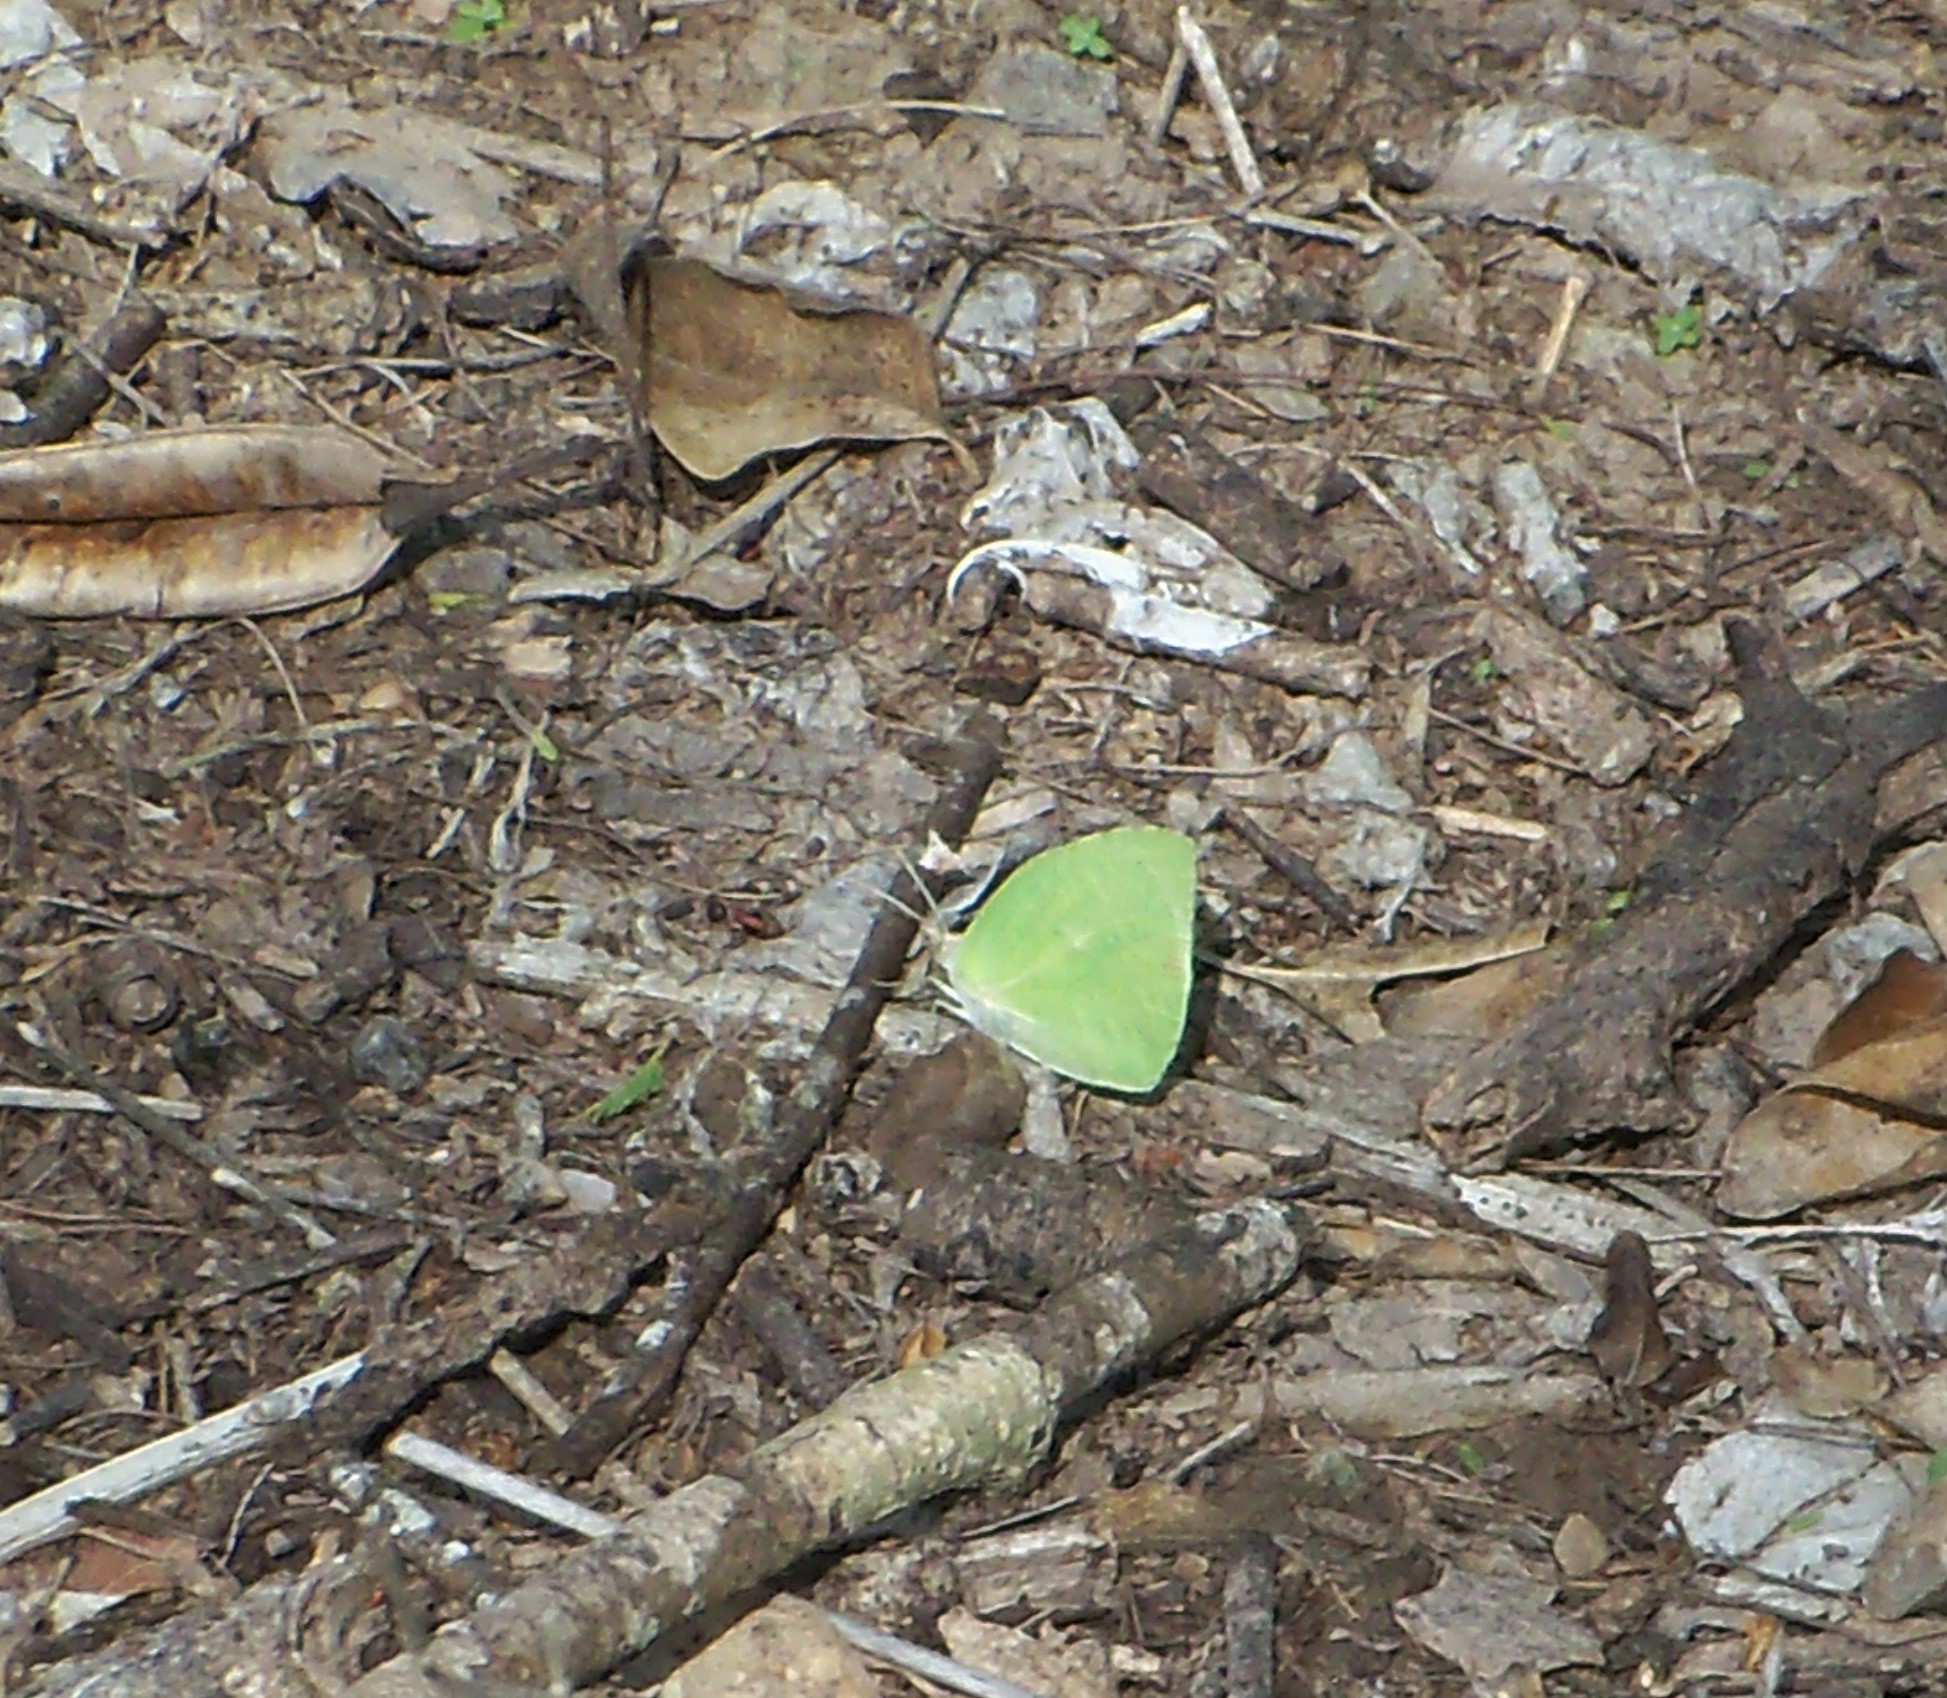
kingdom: Animalia
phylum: Arthropoda
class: Insecta
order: Lepidoptera
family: Pieridae
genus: Kricogonia
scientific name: Kricogonia lyside
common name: Guayacan sulphur,
